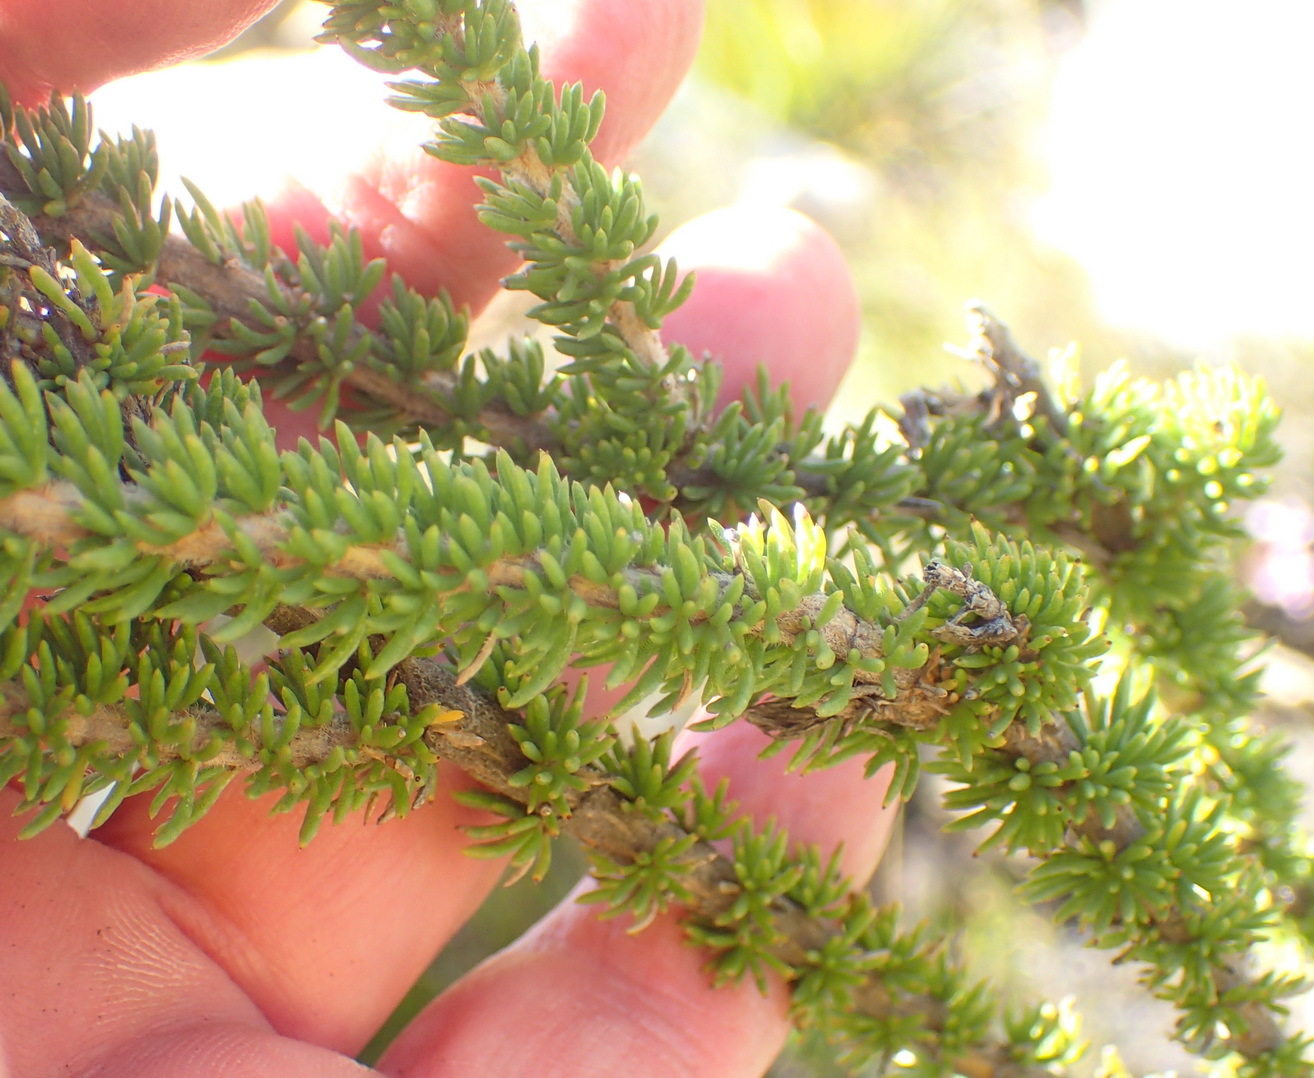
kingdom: Plantae
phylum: Tracheophyta
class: Magnoliopsida
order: Asterales
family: Asteraceae
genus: Pteronia
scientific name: Pteronia camphorata
